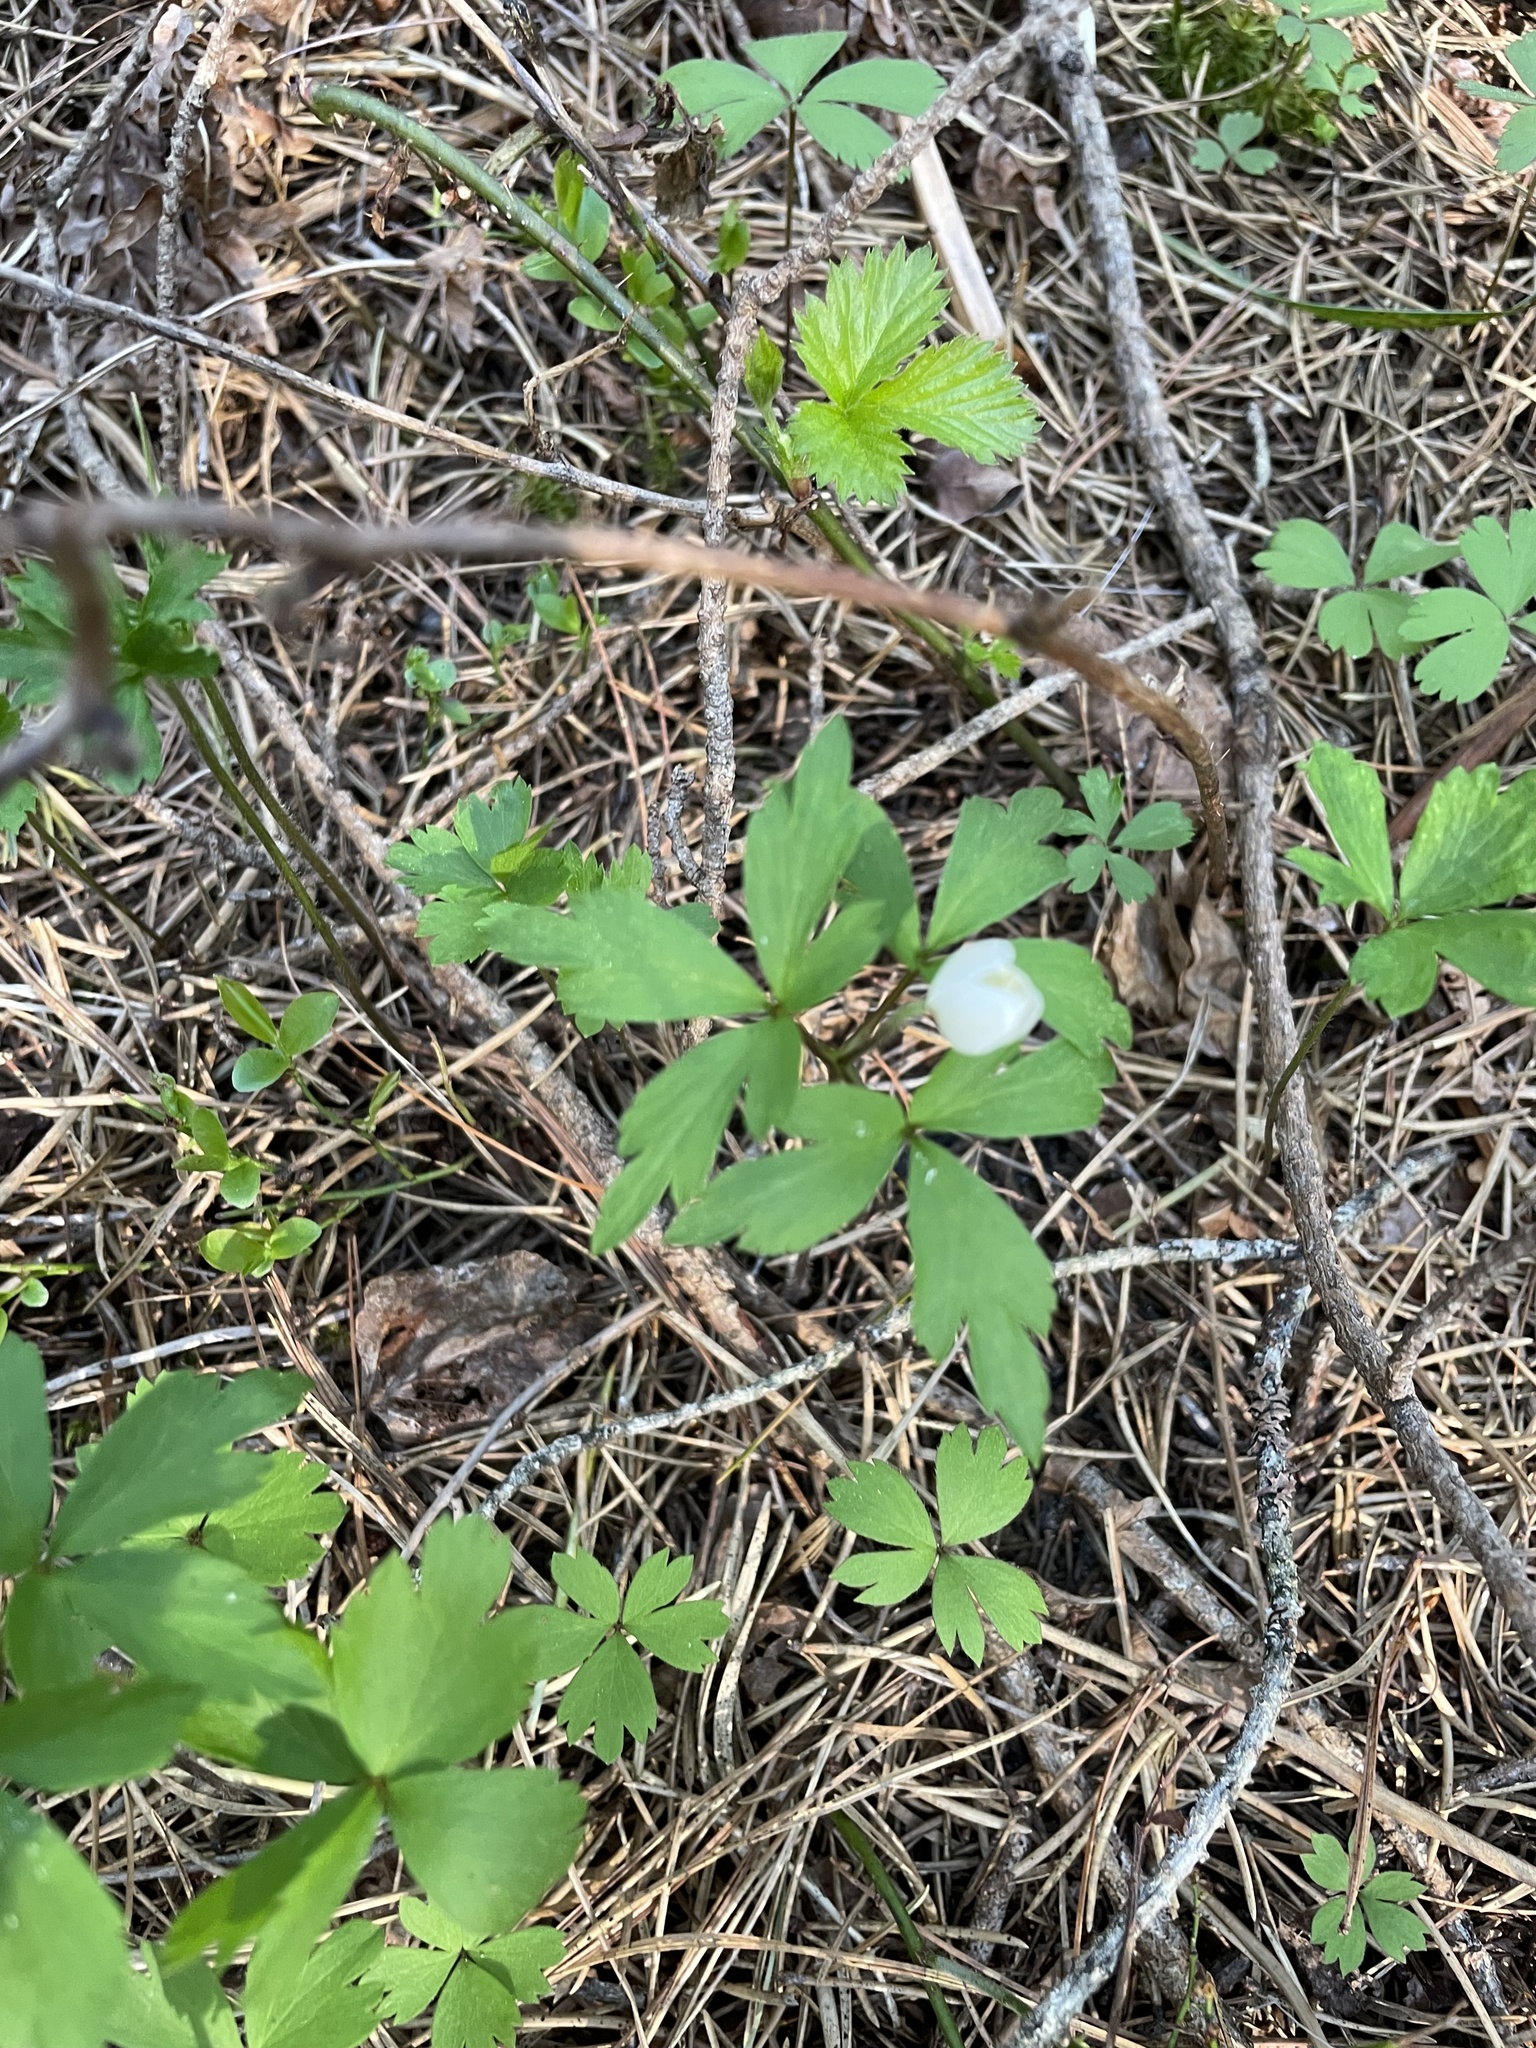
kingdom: Plantae
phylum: Tracheophyta
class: Magnoliopsida
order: Ranunculales
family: Ranunculaceae
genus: Anemone
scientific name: Anemone quinquefolia
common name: Wood anemone
